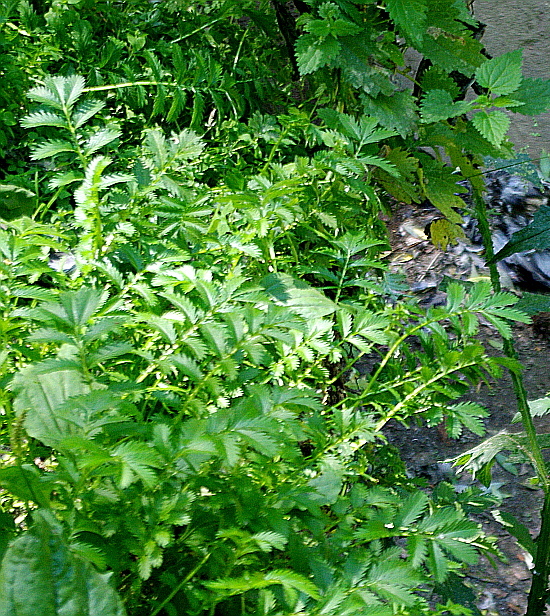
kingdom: Plantae
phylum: Tracheophyta
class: Magnoliopsida
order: Rosales
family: Rosaceae
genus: Argentina
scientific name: Argentina anserina
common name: Common silverweed
